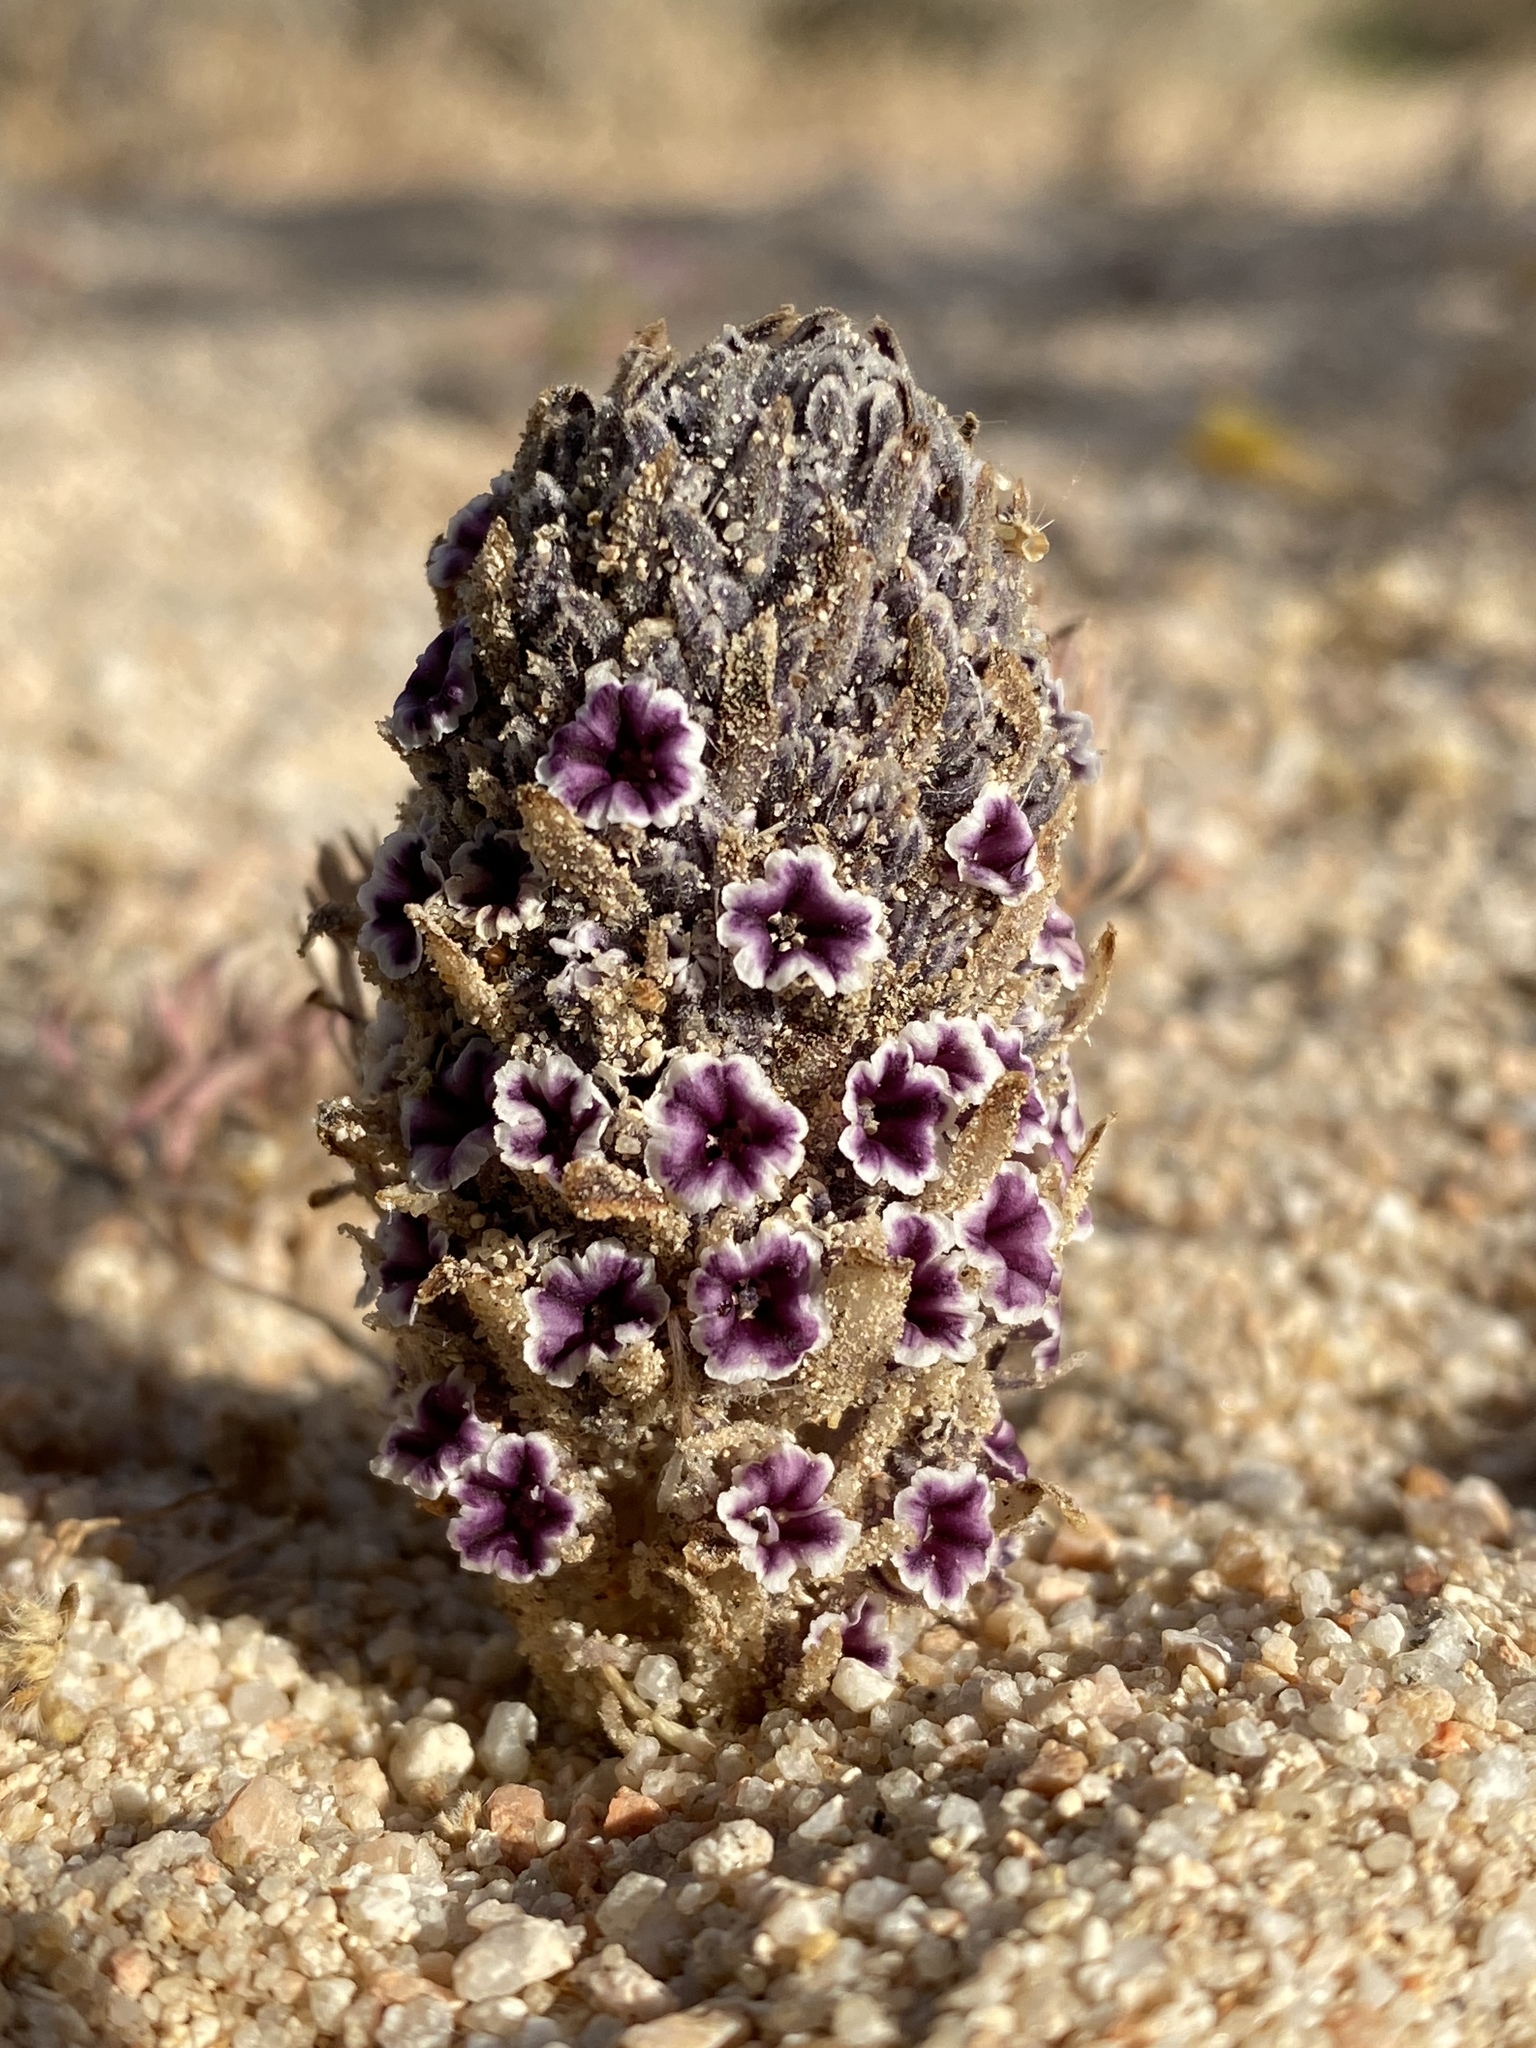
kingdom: Plantae
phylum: Tracheophyta
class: Magnoliopsida
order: Boraginales
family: Lennoaceae
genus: Pholisma
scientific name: Pholisma arenarium
